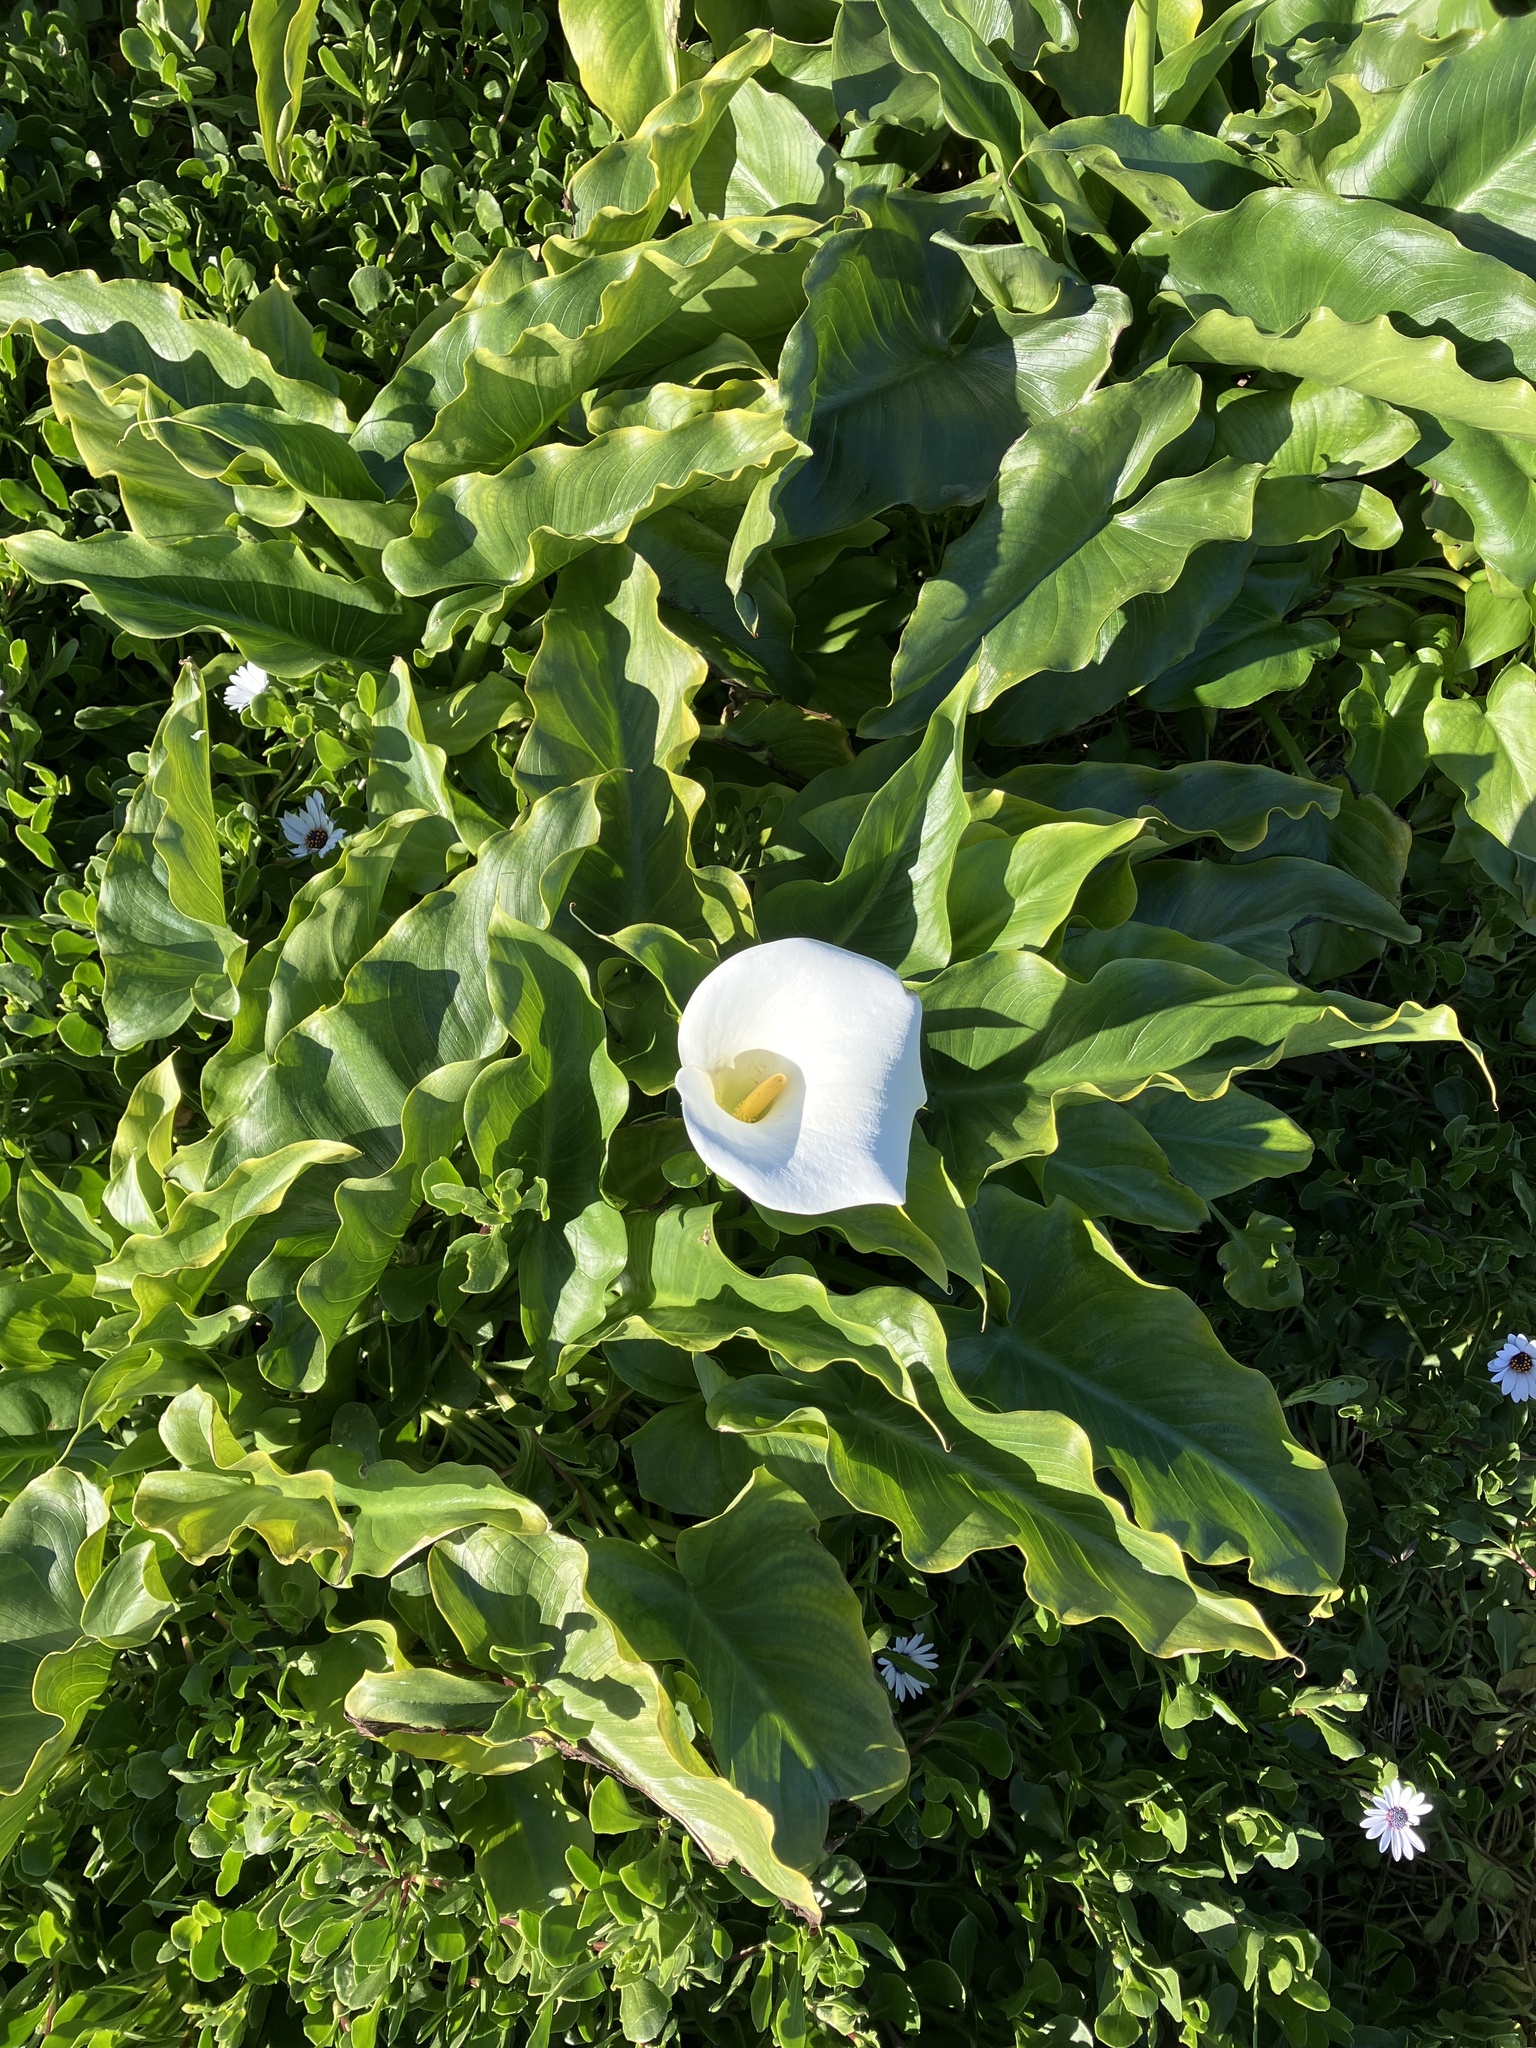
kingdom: Plantae
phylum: Tracheophyta
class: Liliopsida
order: Alismatales
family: Araceae
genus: Zantedeschia
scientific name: Zantedeschia aethiopica
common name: Altar-lily
